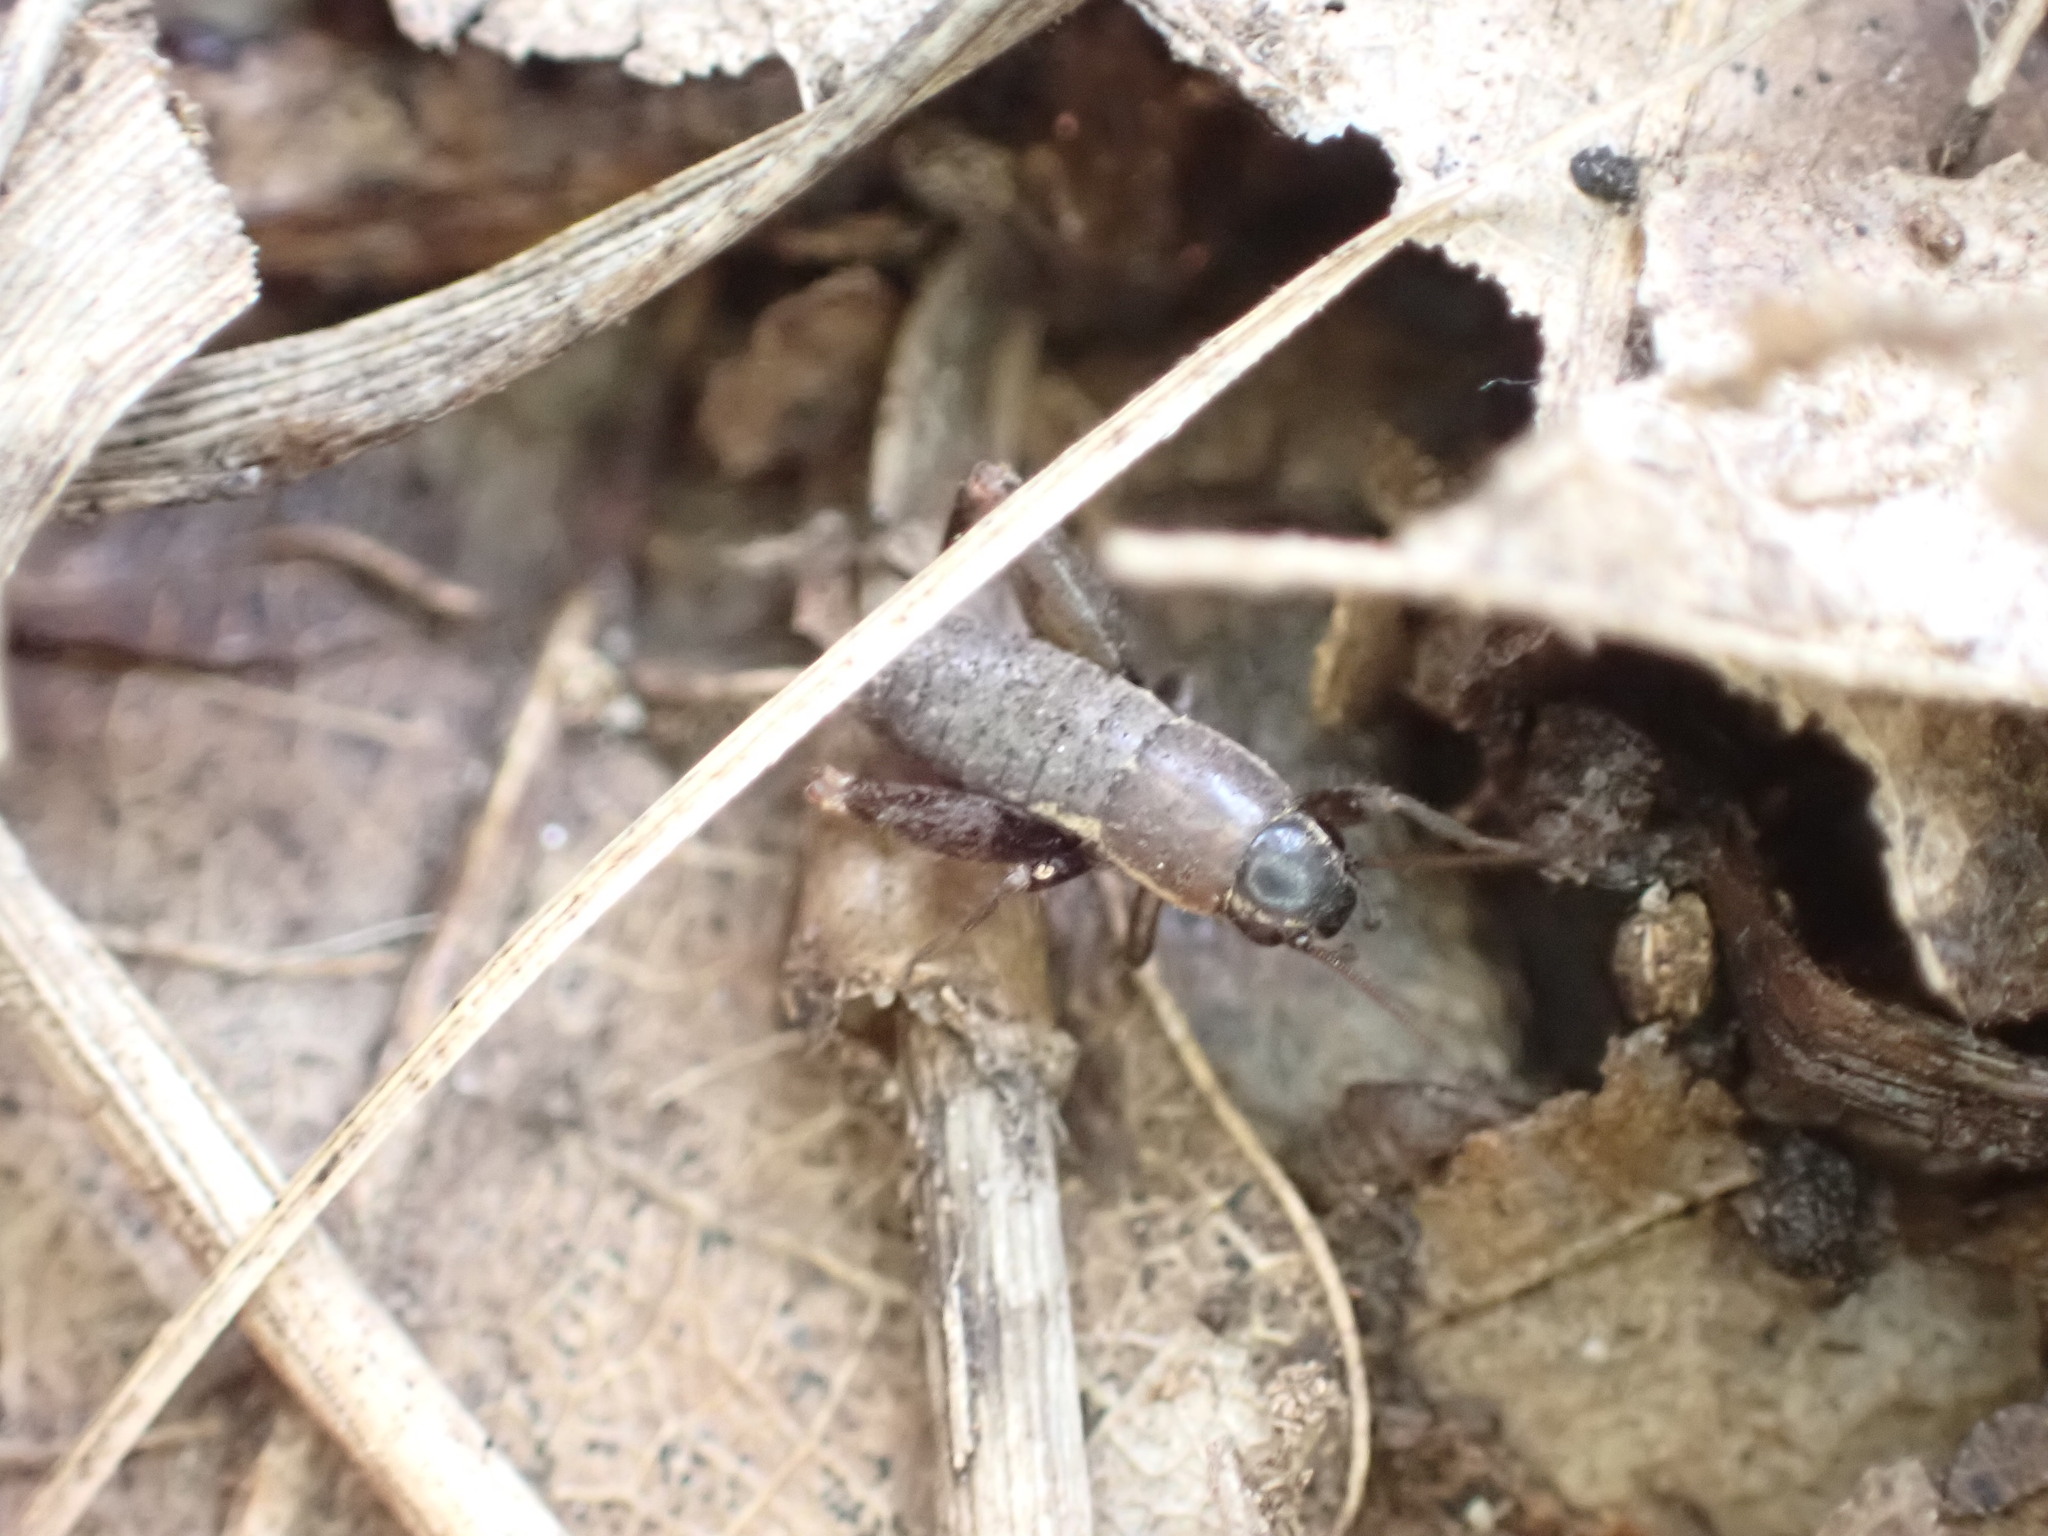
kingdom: Animalia
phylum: Arthropoda
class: Insecta
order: Orthoptera
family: Mogoplistidae
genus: Mogoplistes
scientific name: Mogoplistes brunneus
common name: Brown scale-cricket
